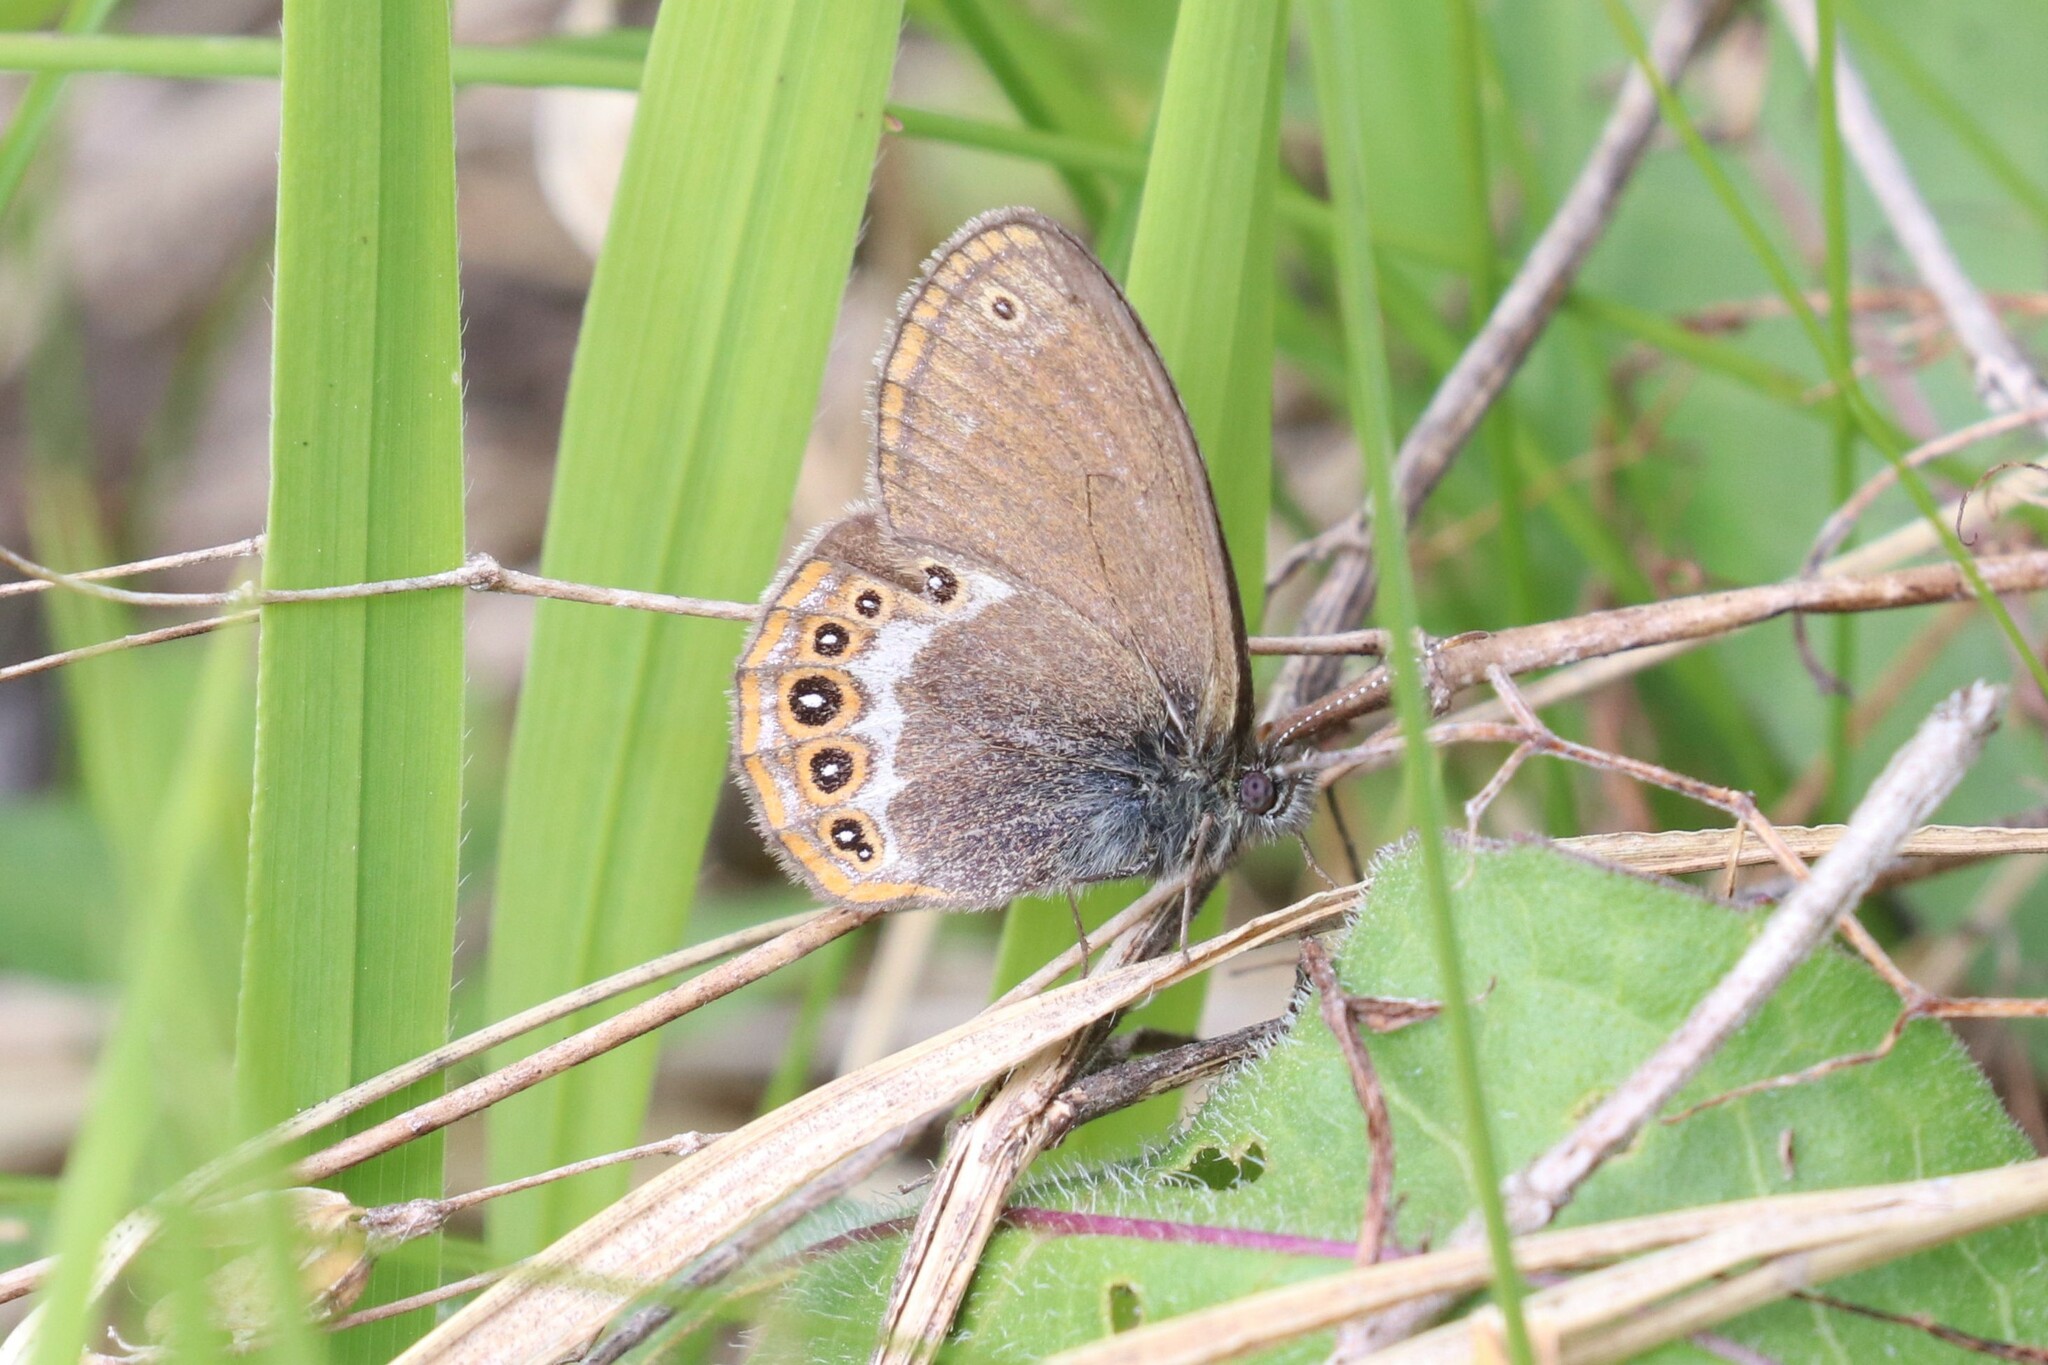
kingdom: Animalia
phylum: Arthropoda
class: Insecta
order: Lepidoptera
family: Nymphalidae
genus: Coenonympha
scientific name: Coenonympha hero
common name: Scarce heath
